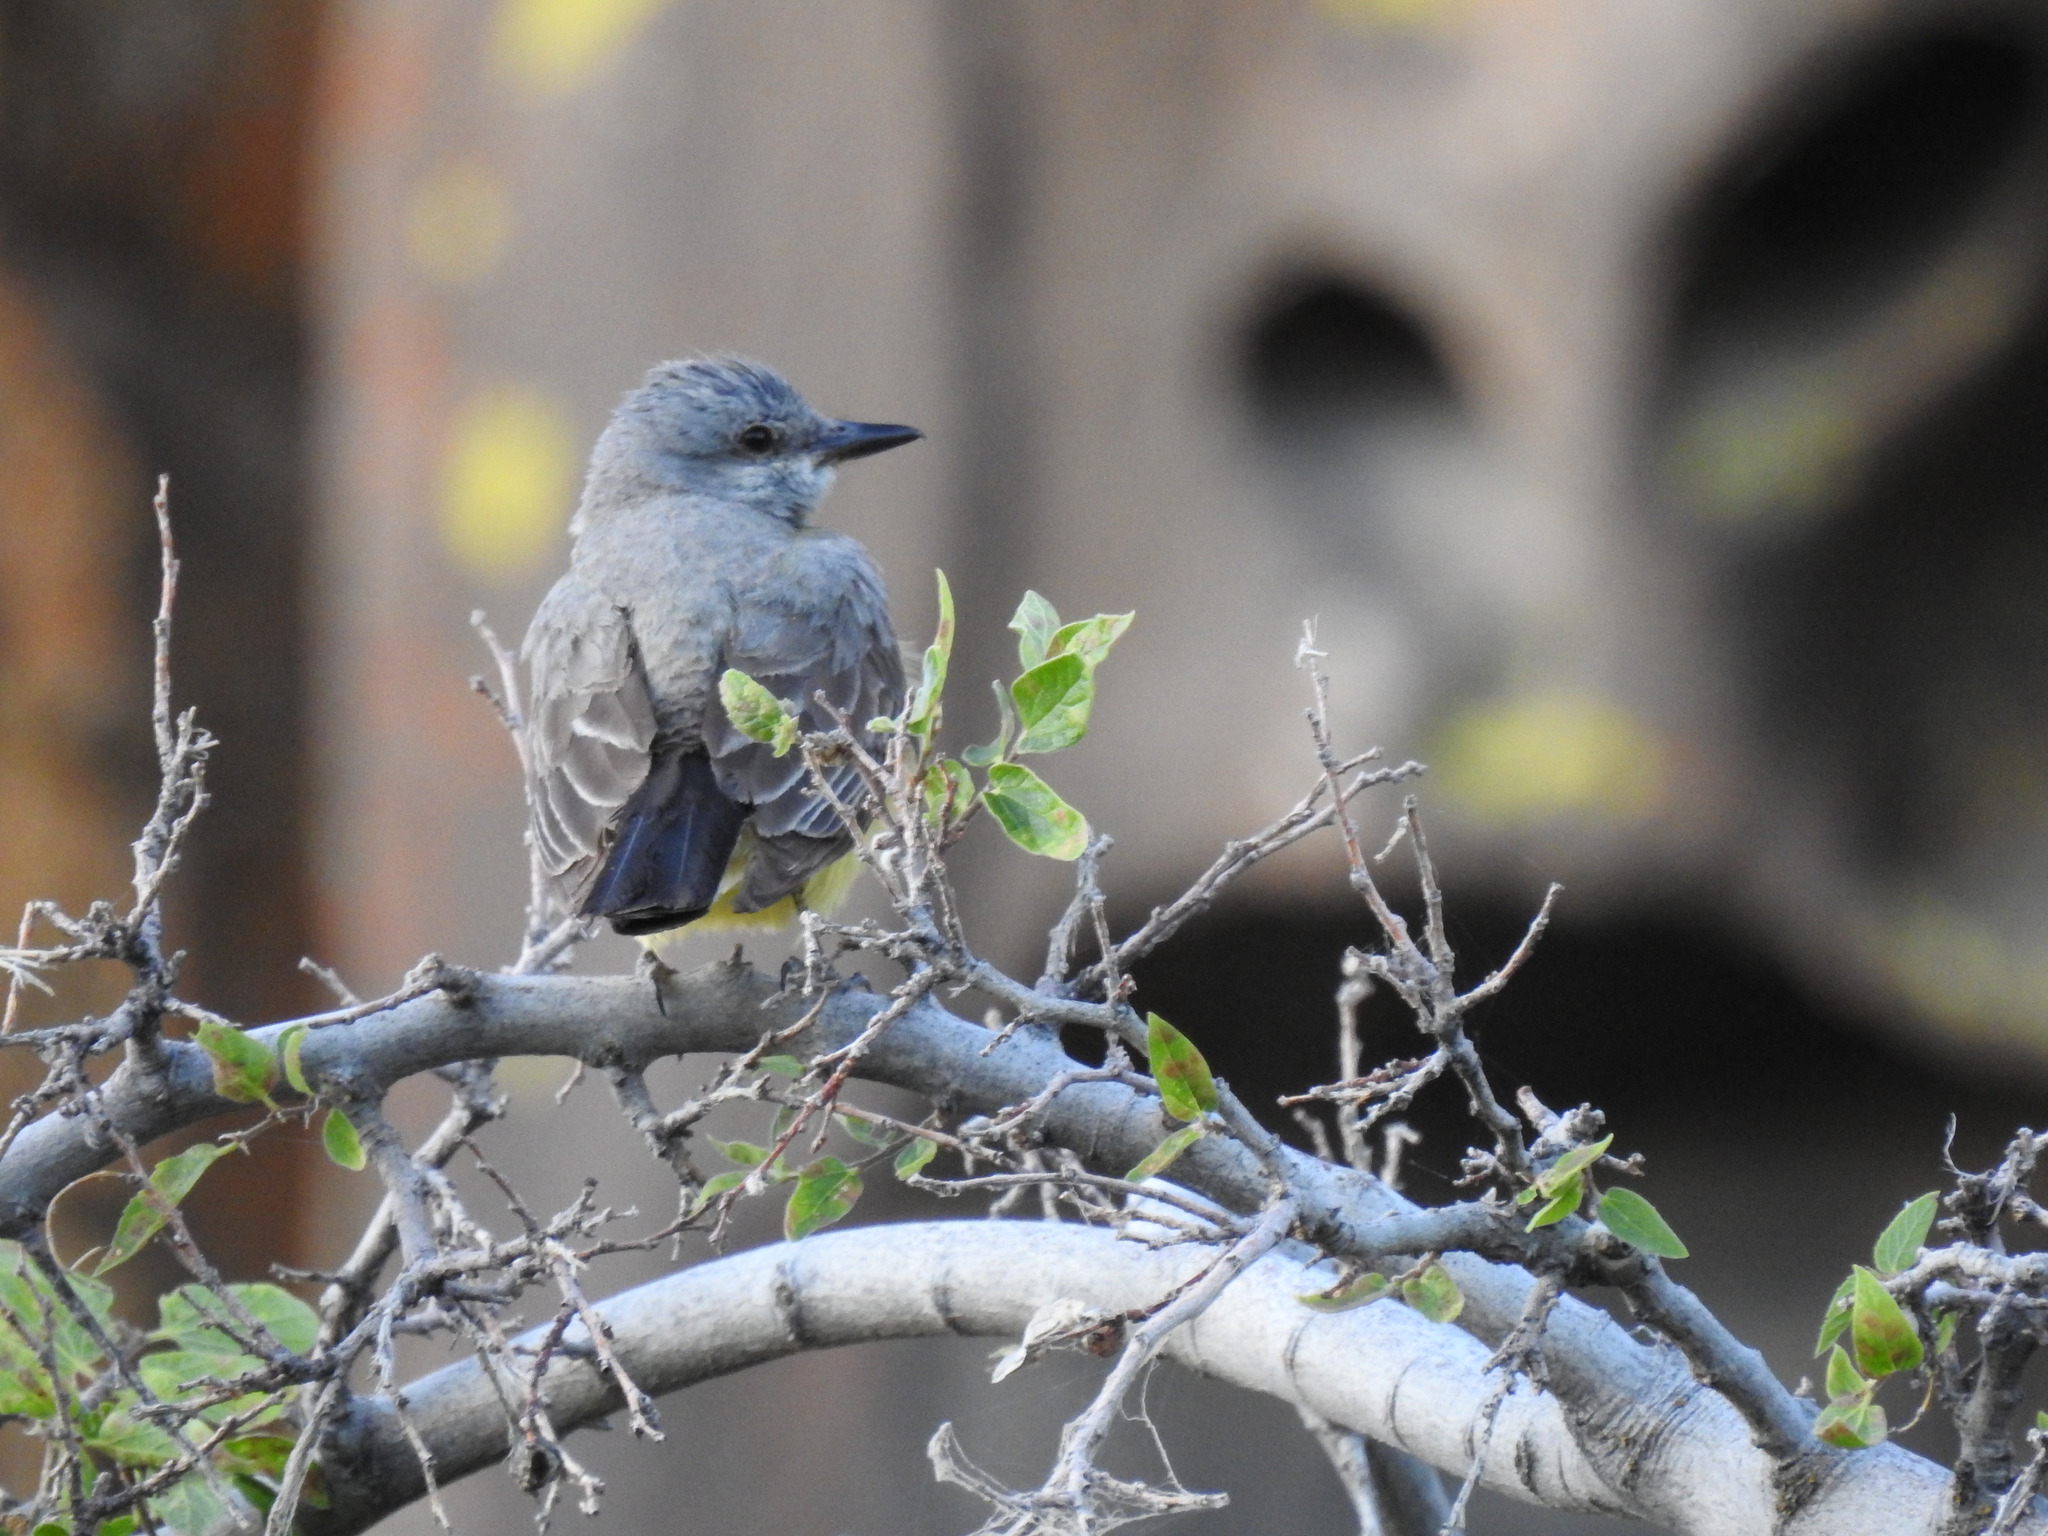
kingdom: Animalia
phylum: Chordata
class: Aves
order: Passeriformes
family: Tyrannidae
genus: Tyrannus
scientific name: Tyrannus verticalis
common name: Western kingbird
